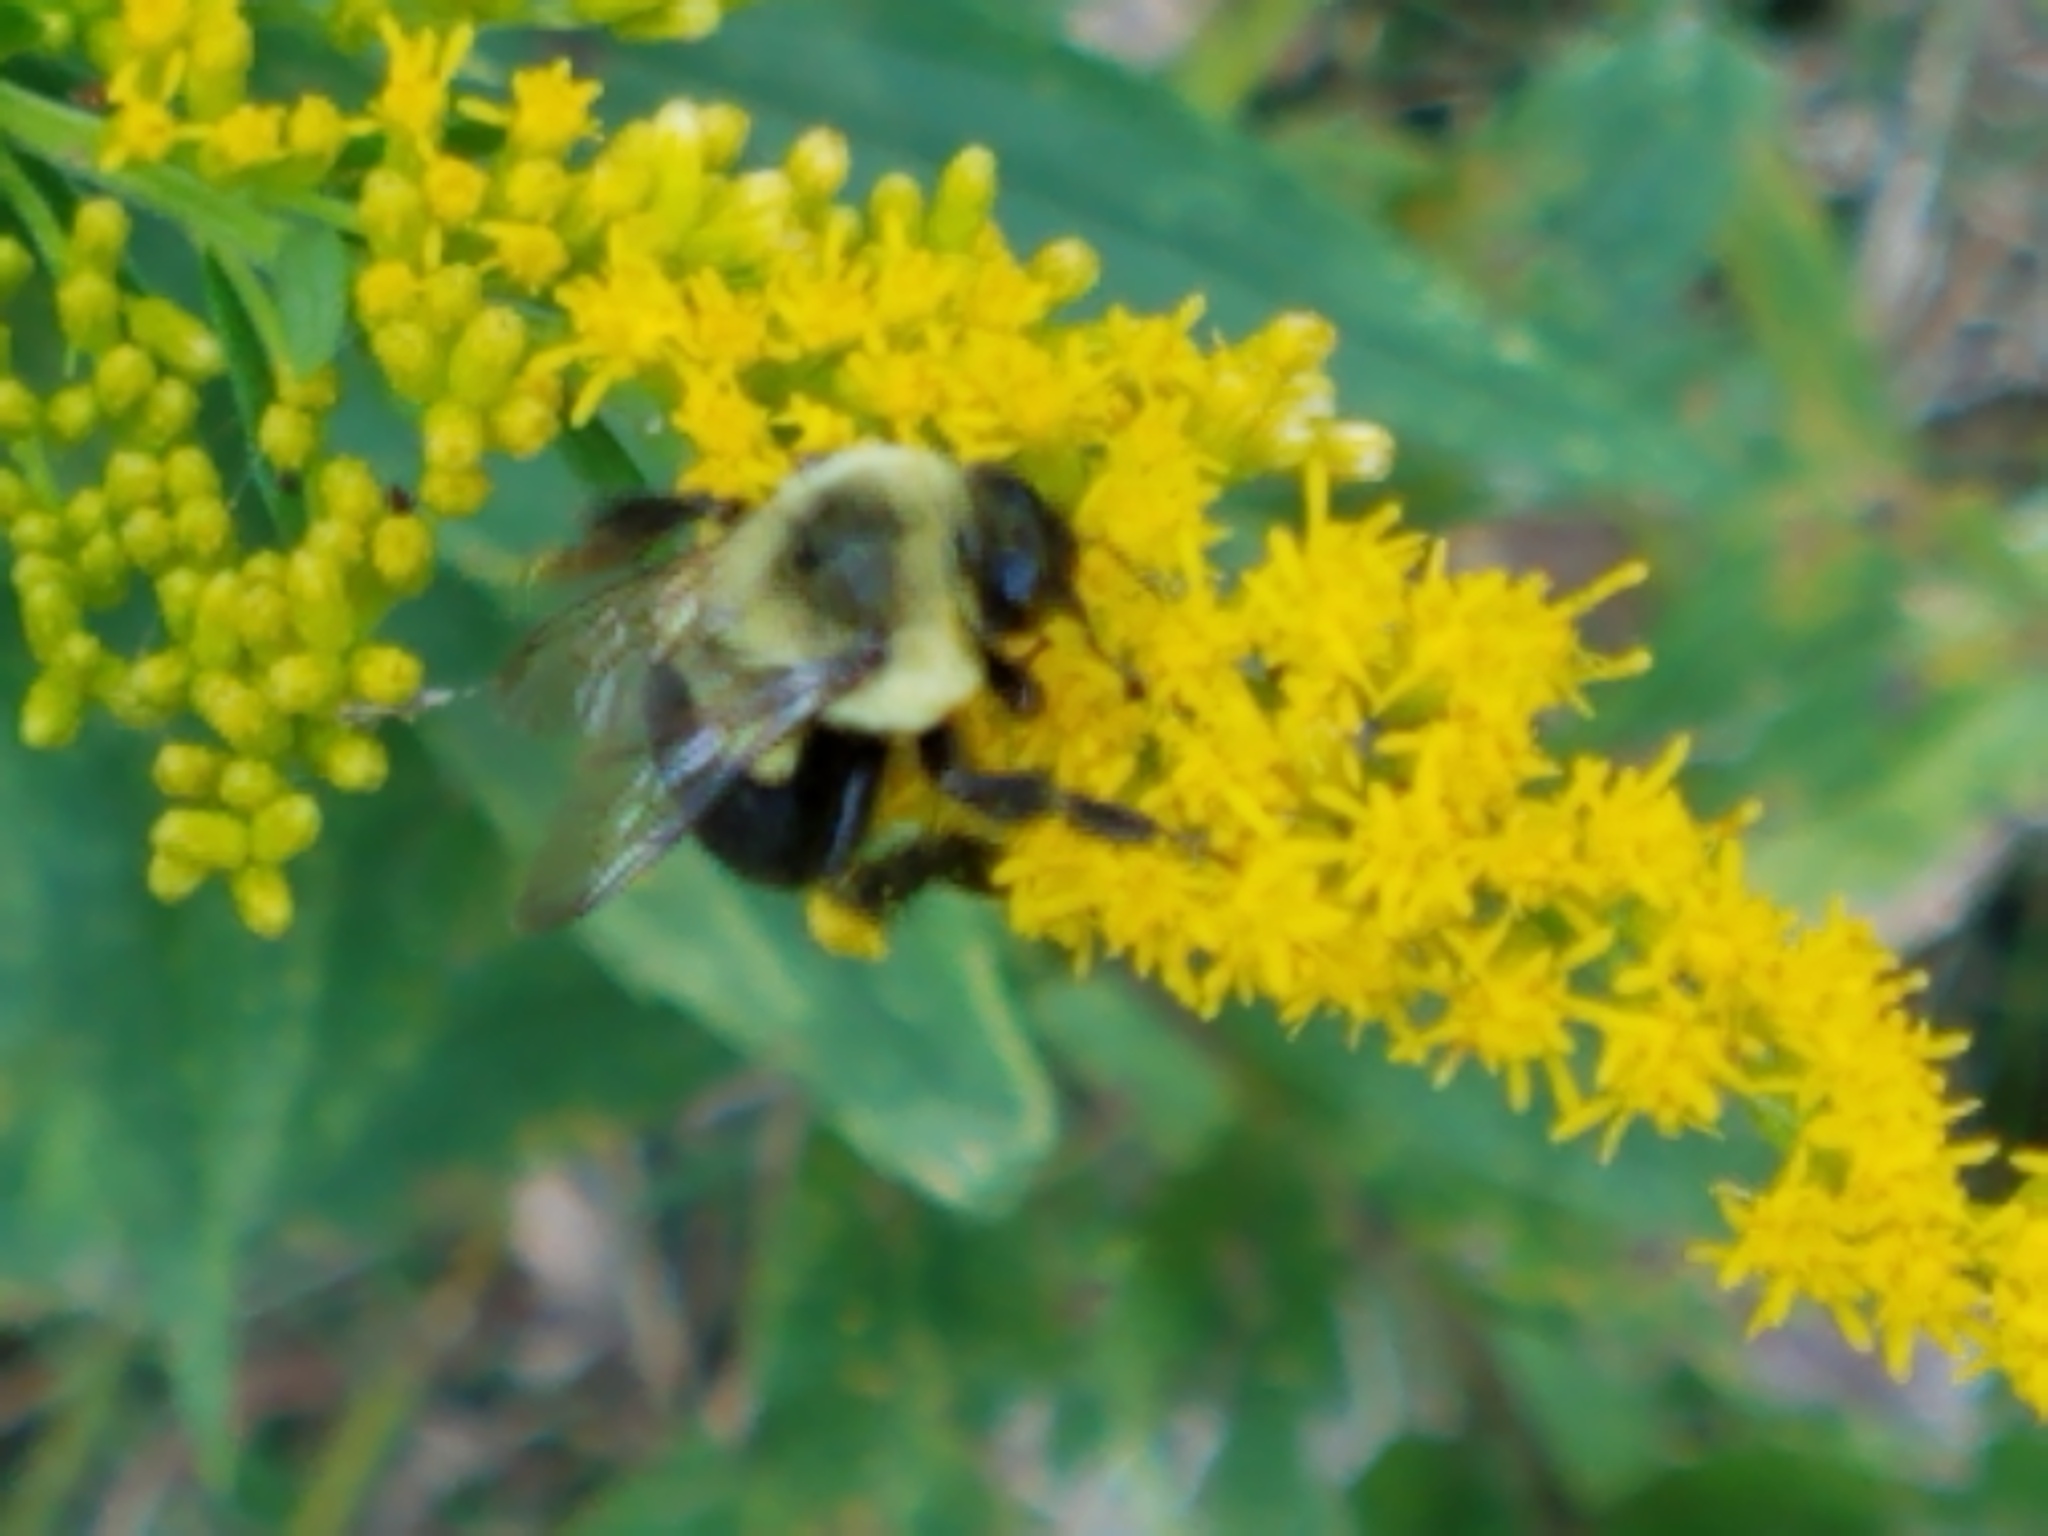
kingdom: Animalia
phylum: Arthropoda
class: Insecta
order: Hymenoptera
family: Apidae
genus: Bombus
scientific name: Bombus impatiens
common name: Common eastern bumble bee
